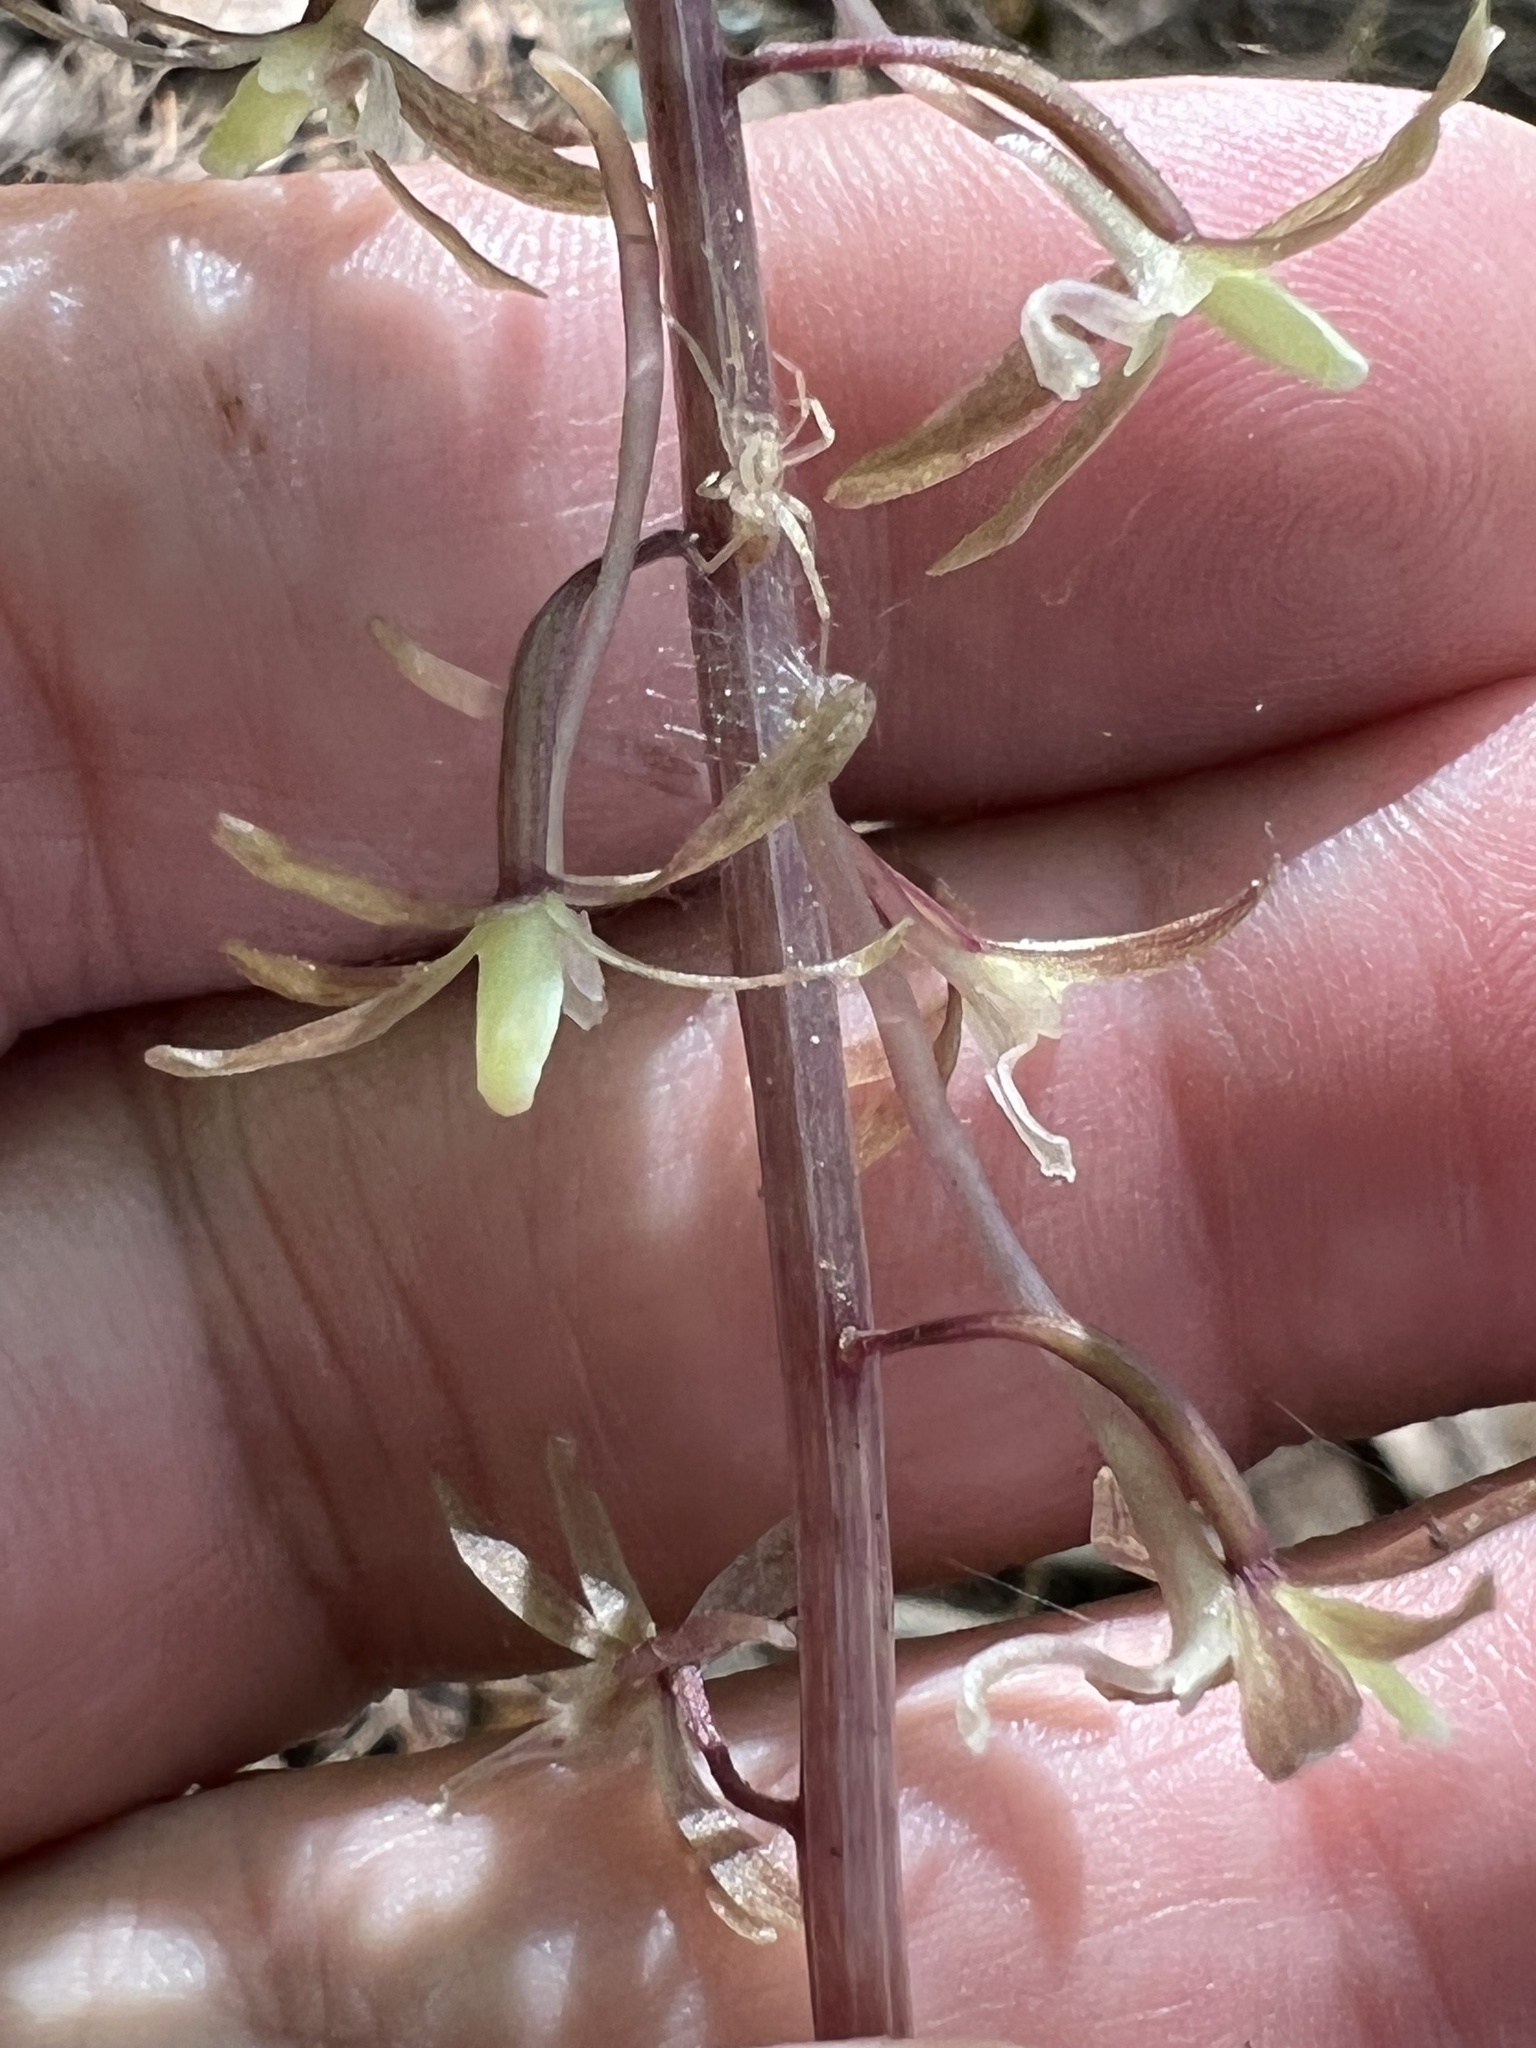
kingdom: Plantae
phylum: Tracheophyta
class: Liliopsida
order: Asparagales
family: Orchidaceae
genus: Tipularia
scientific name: Tipularia discolor
